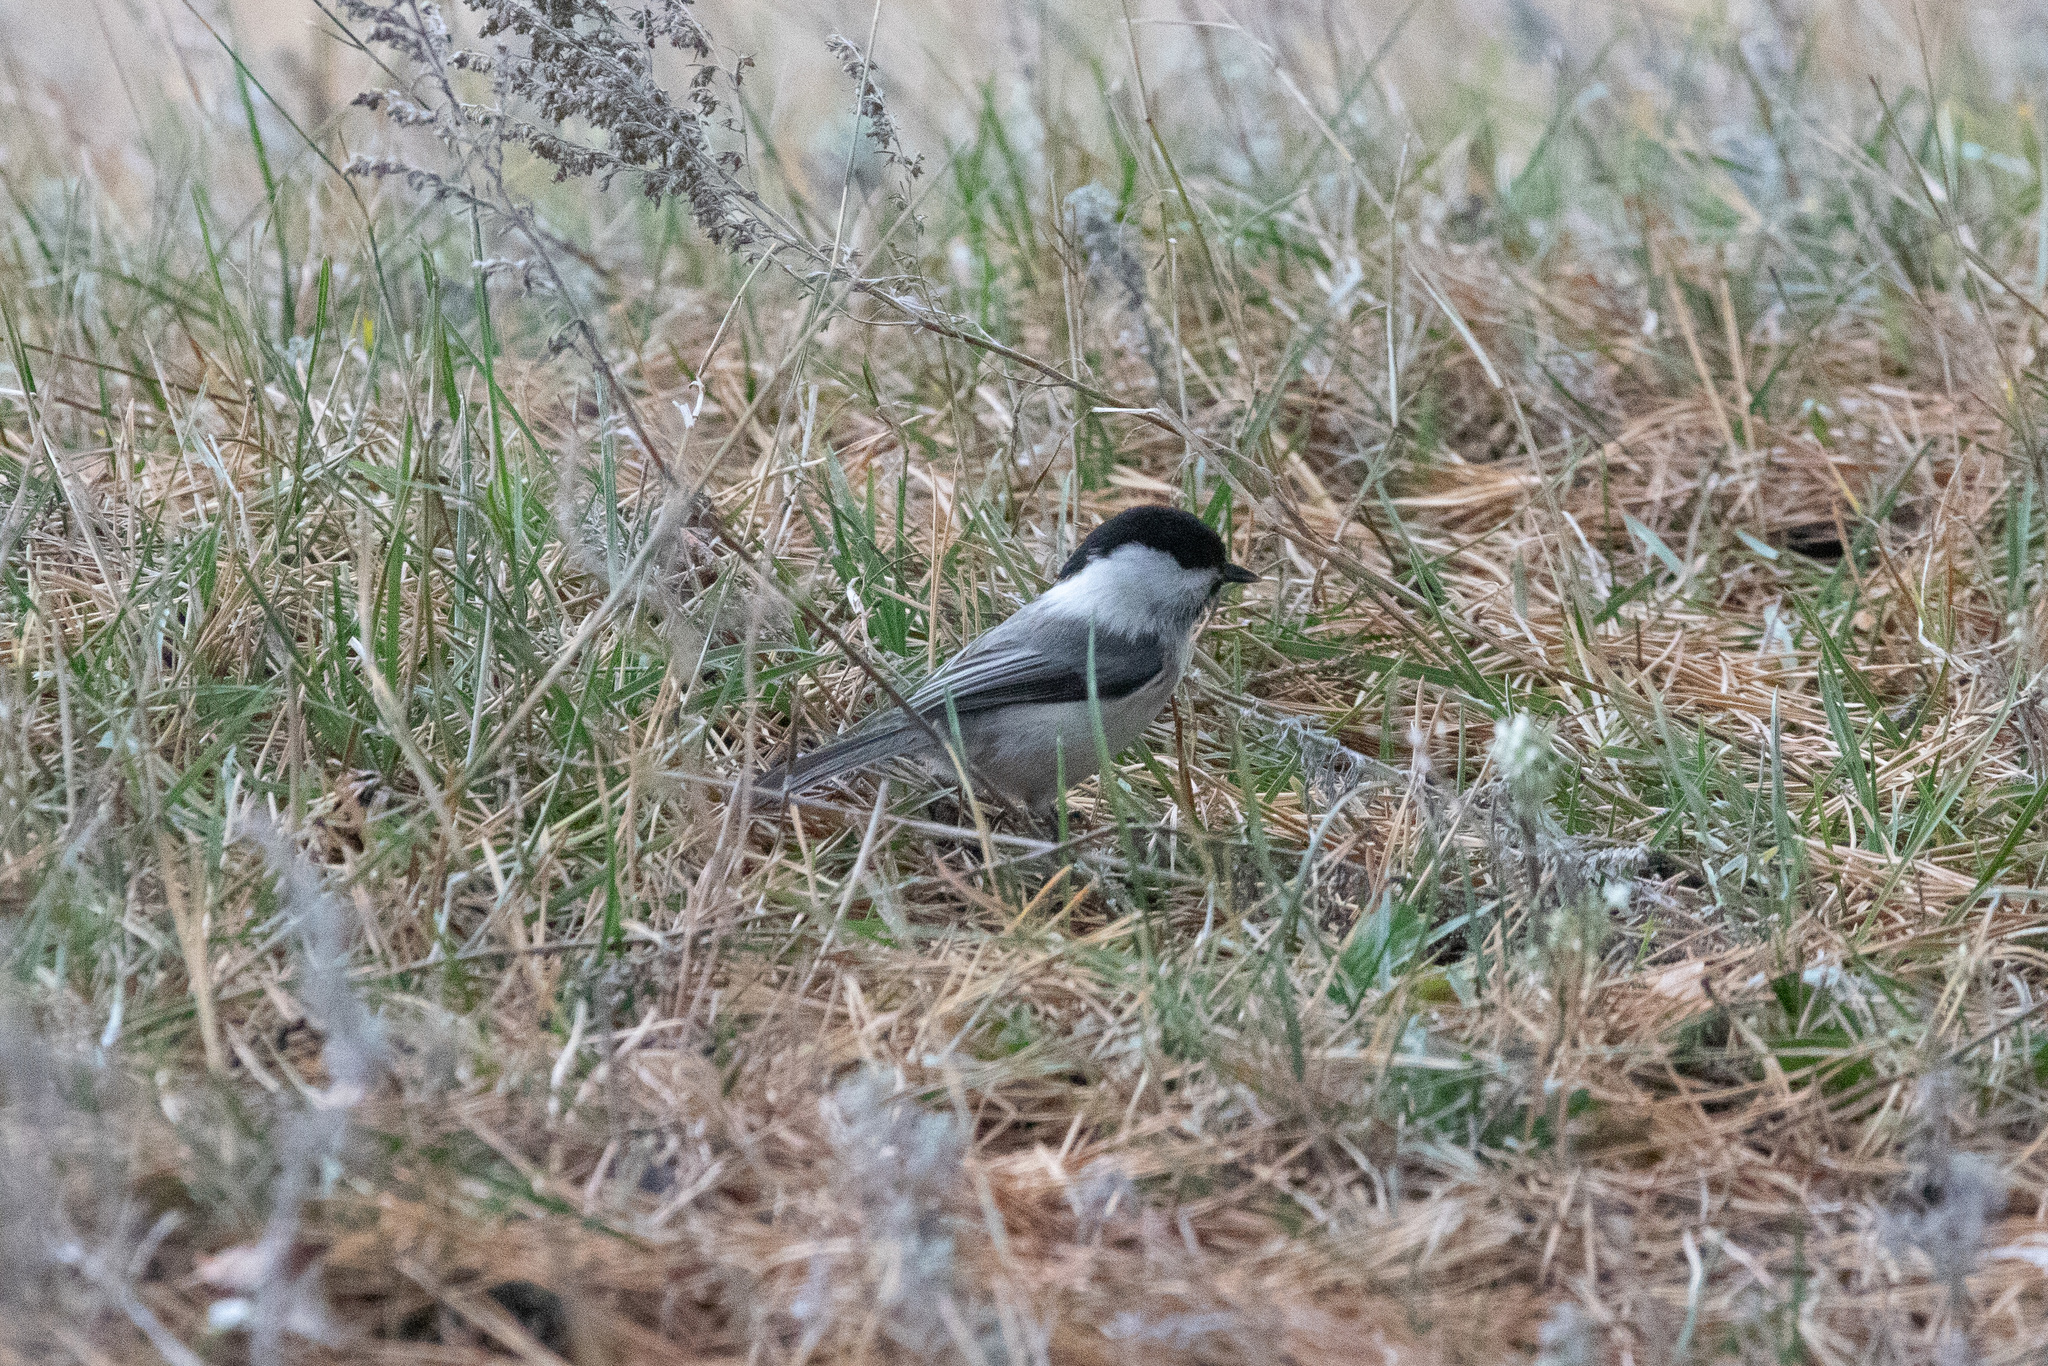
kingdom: Animalia
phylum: Chordata
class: Aves
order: Passeriformes
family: Paridae
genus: Poecile
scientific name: Poecile montanus
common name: Willow tit
